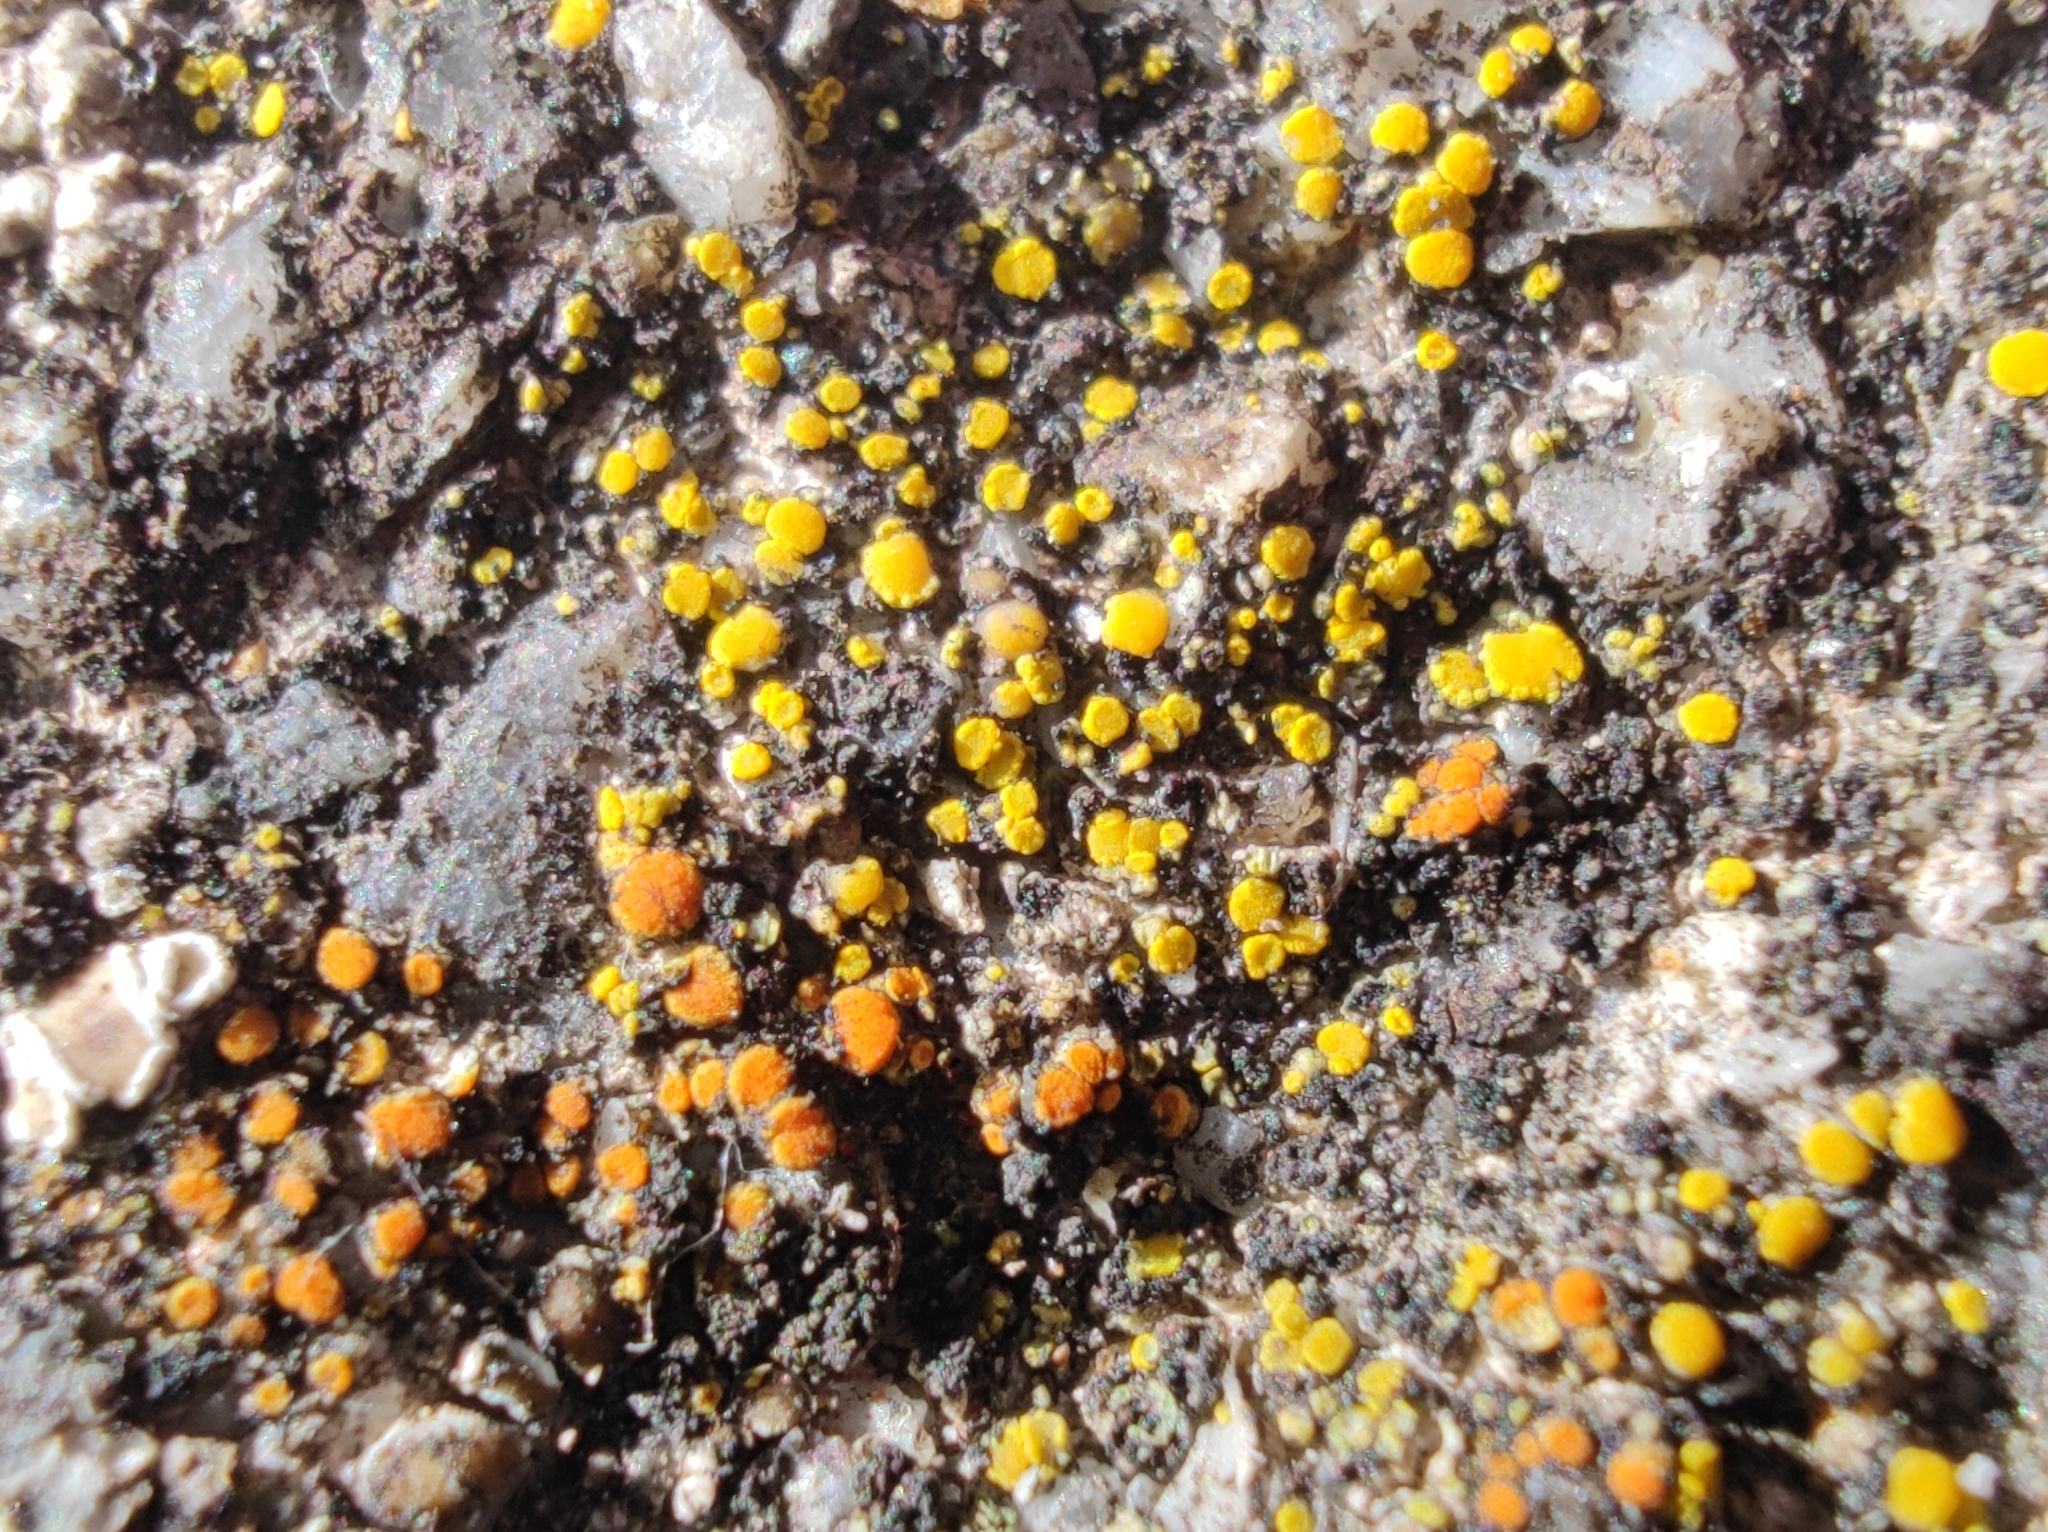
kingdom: Fungi
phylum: Ascomycota
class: Candelariomycetes
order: Candelariales
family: Candelariaceae
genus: Candelariella
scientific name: Candelariella aurella
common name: Hidden goldspeck lichen
